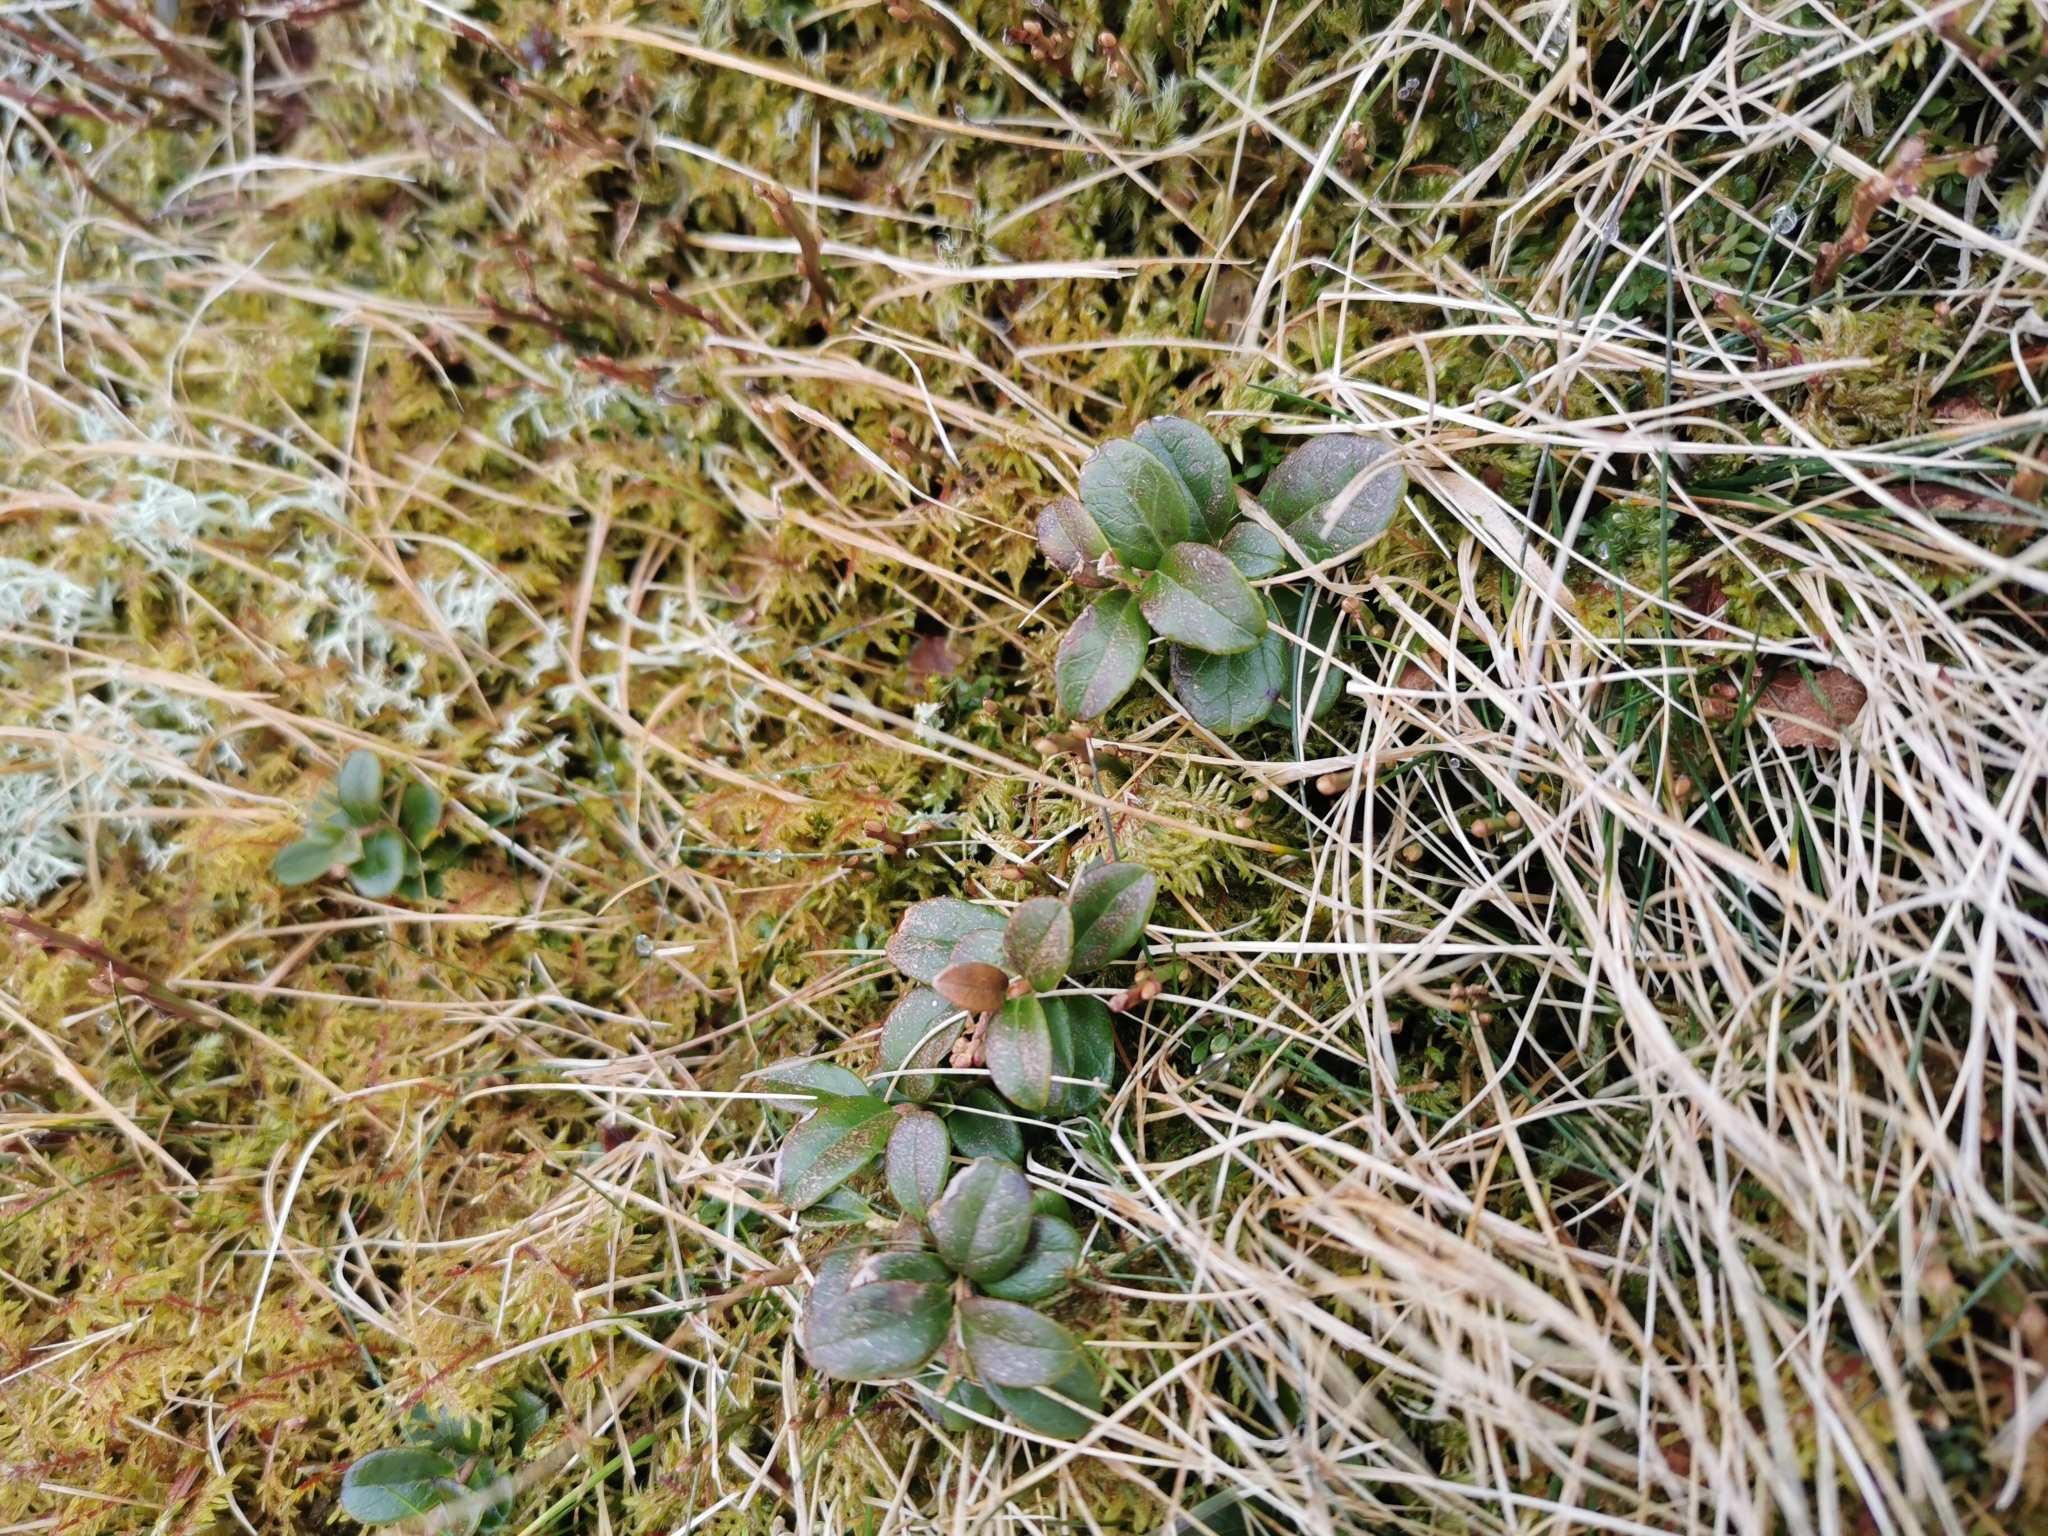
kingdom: Plantae
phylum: Tracheophyta
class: Magnoliopsida
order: Ericales
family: Ericaceae
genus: Vaccinium
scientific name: Vaccinium vitis-idaea
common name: Cowberry
